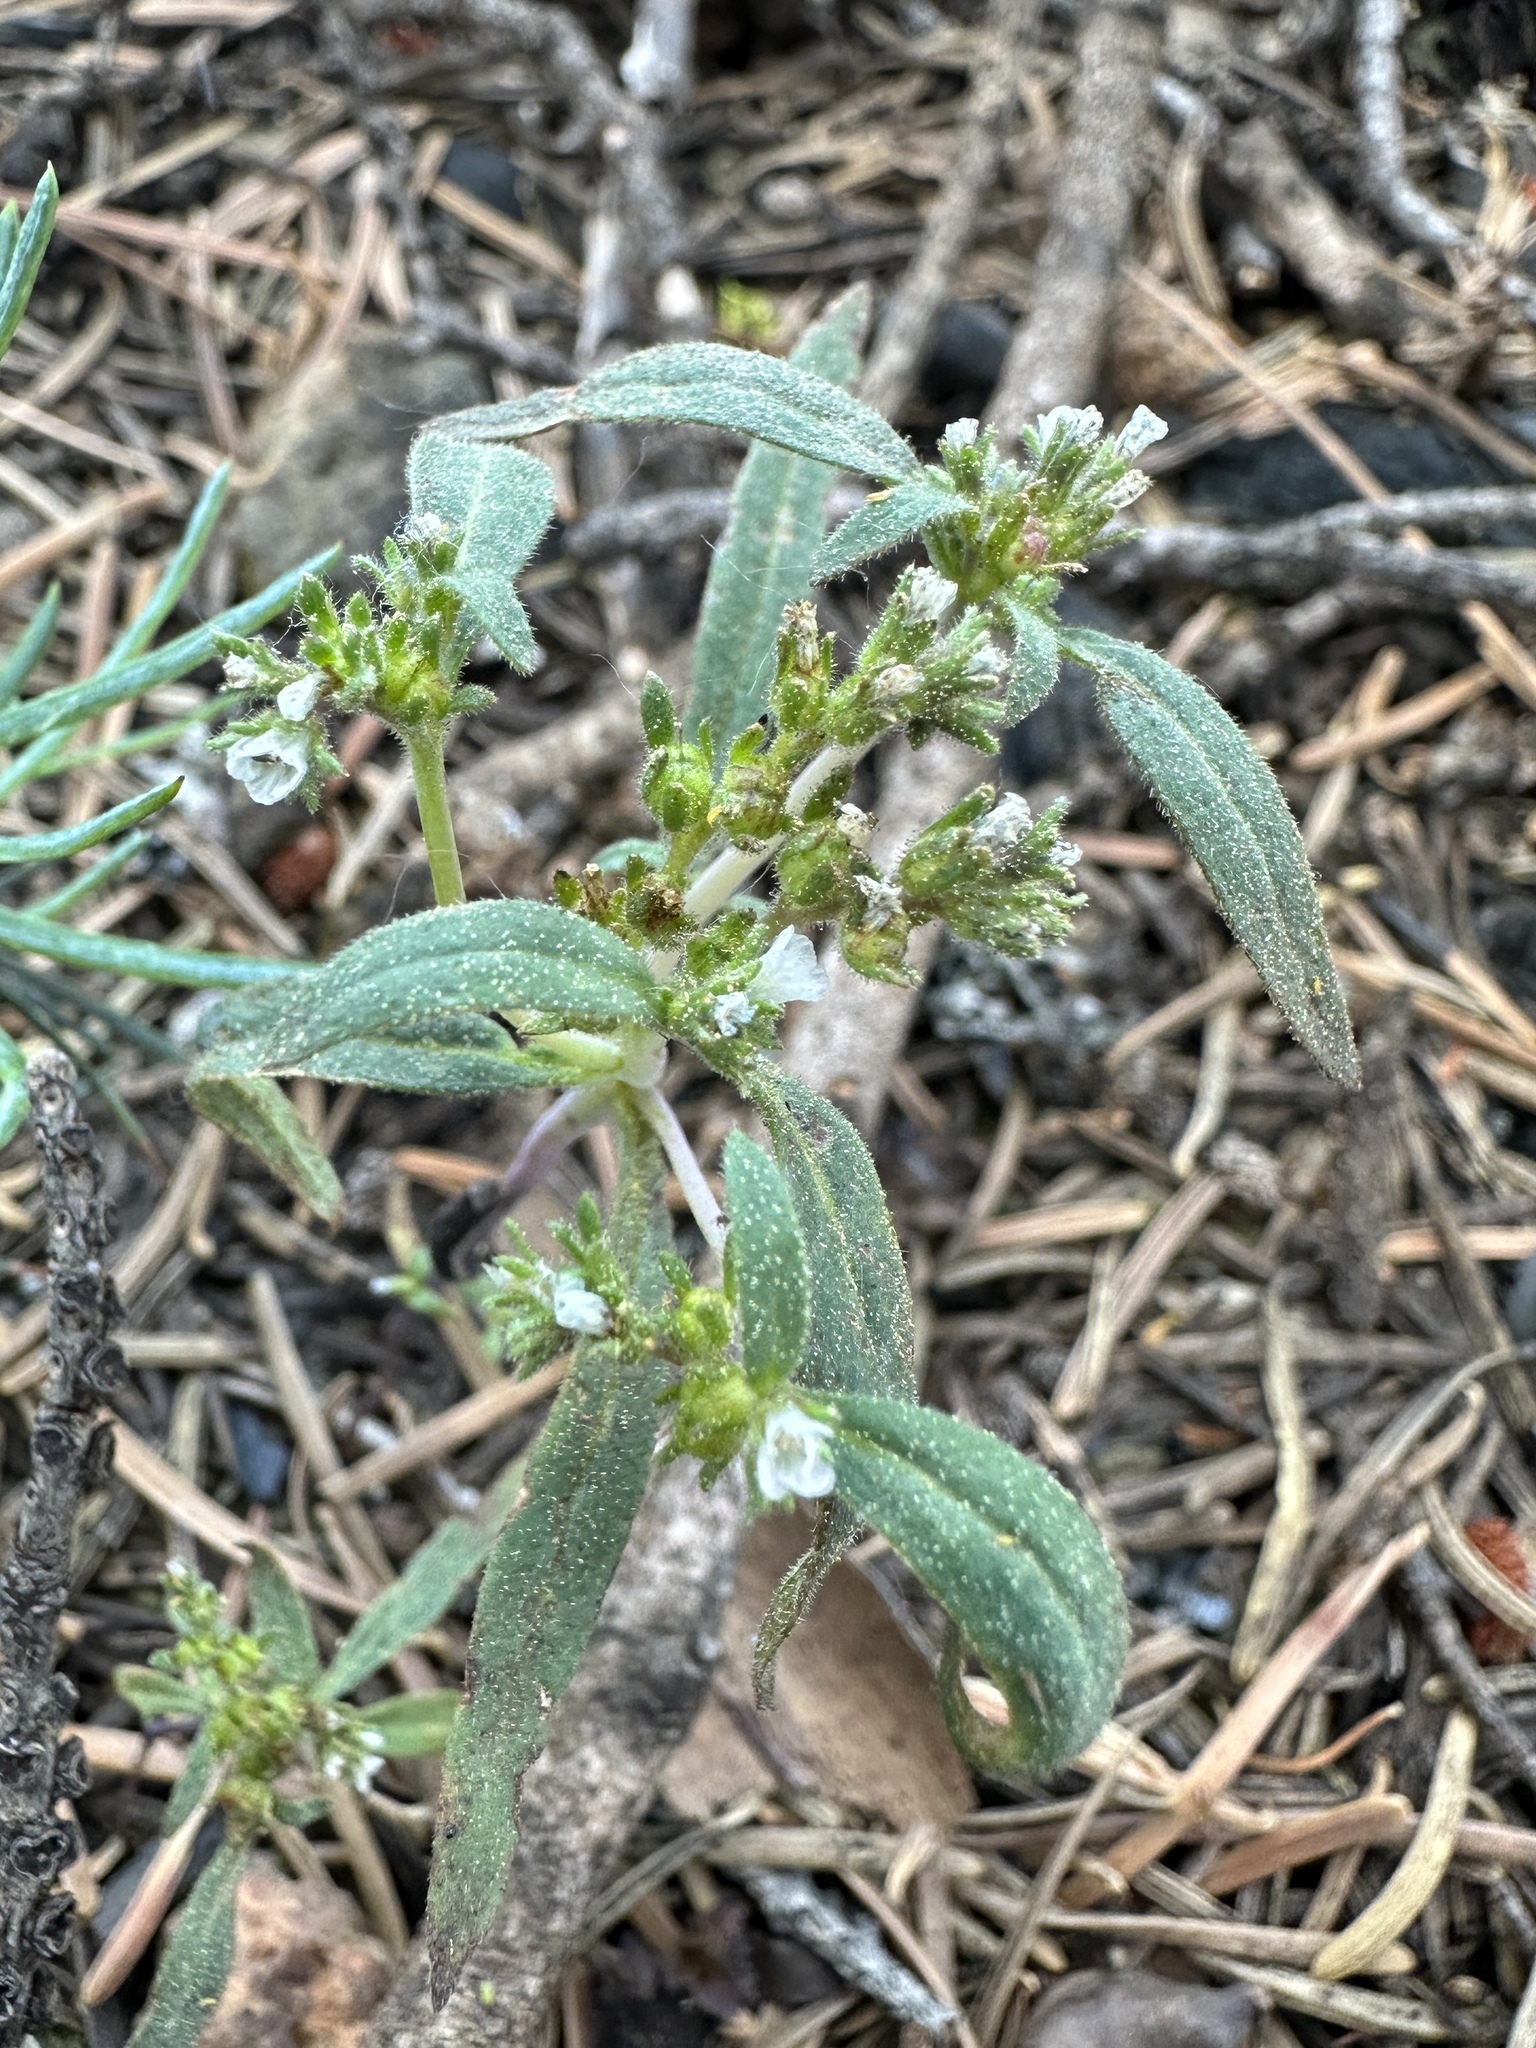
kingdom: Plantae
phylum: Tracheophyta
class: Magnoliopsida
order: Boraginales
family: Hydrophyllaceae
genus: Phacelia
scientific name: Phacelia racemosa
